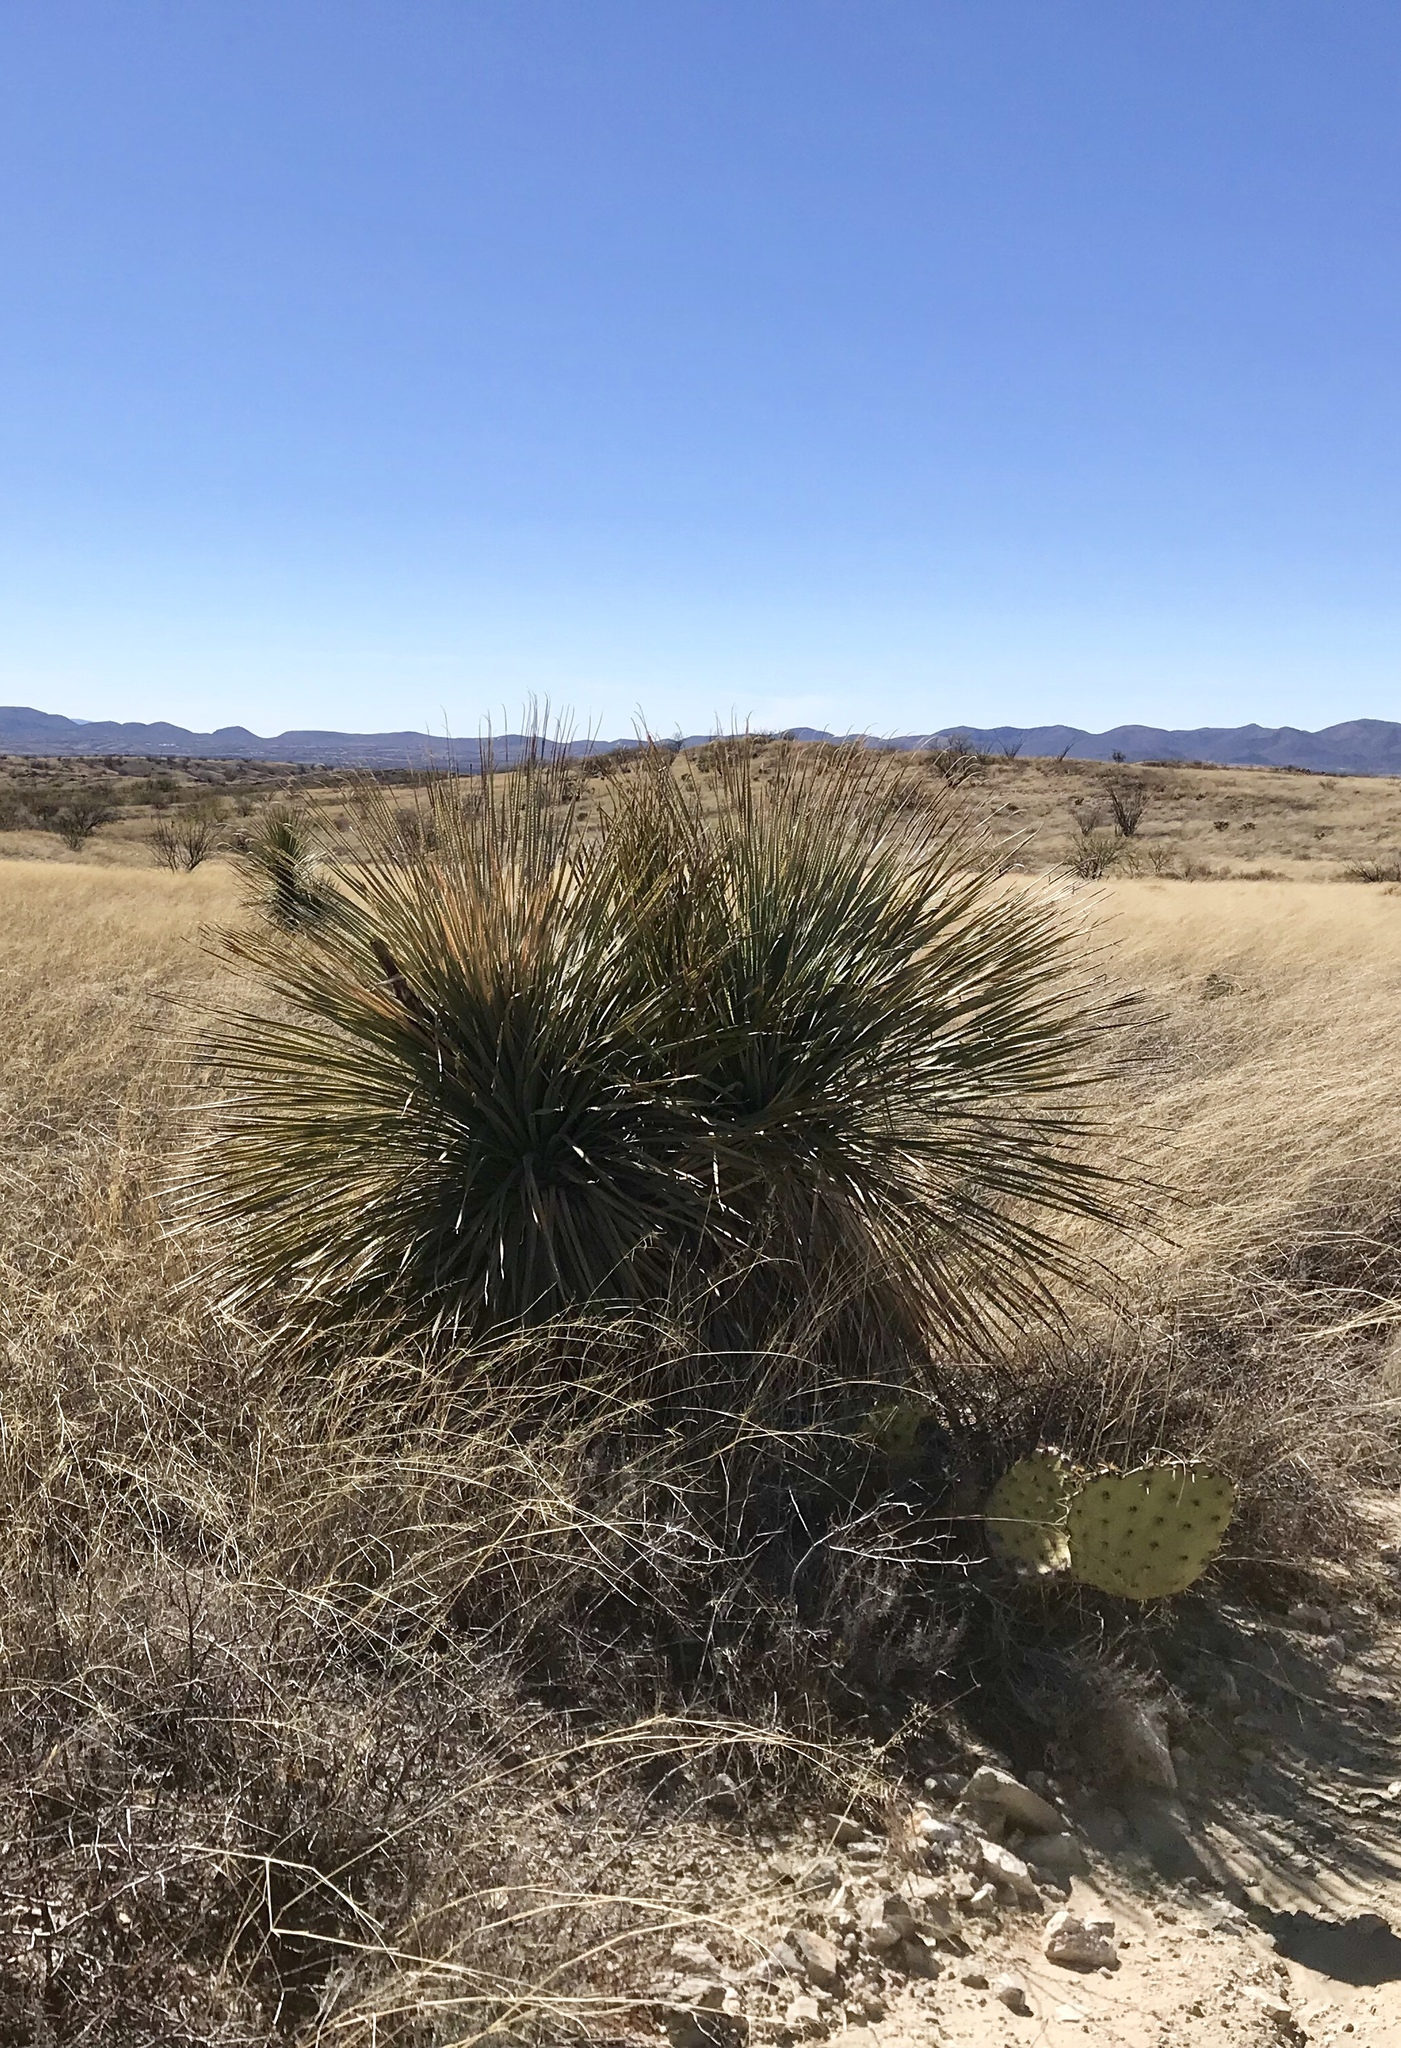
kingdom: Plantae
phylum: Tracheophyta
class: Liliopsida
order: Asparagales
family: Asparagaceae
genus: Dasylirion
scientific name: Dasylirion wheeleri
